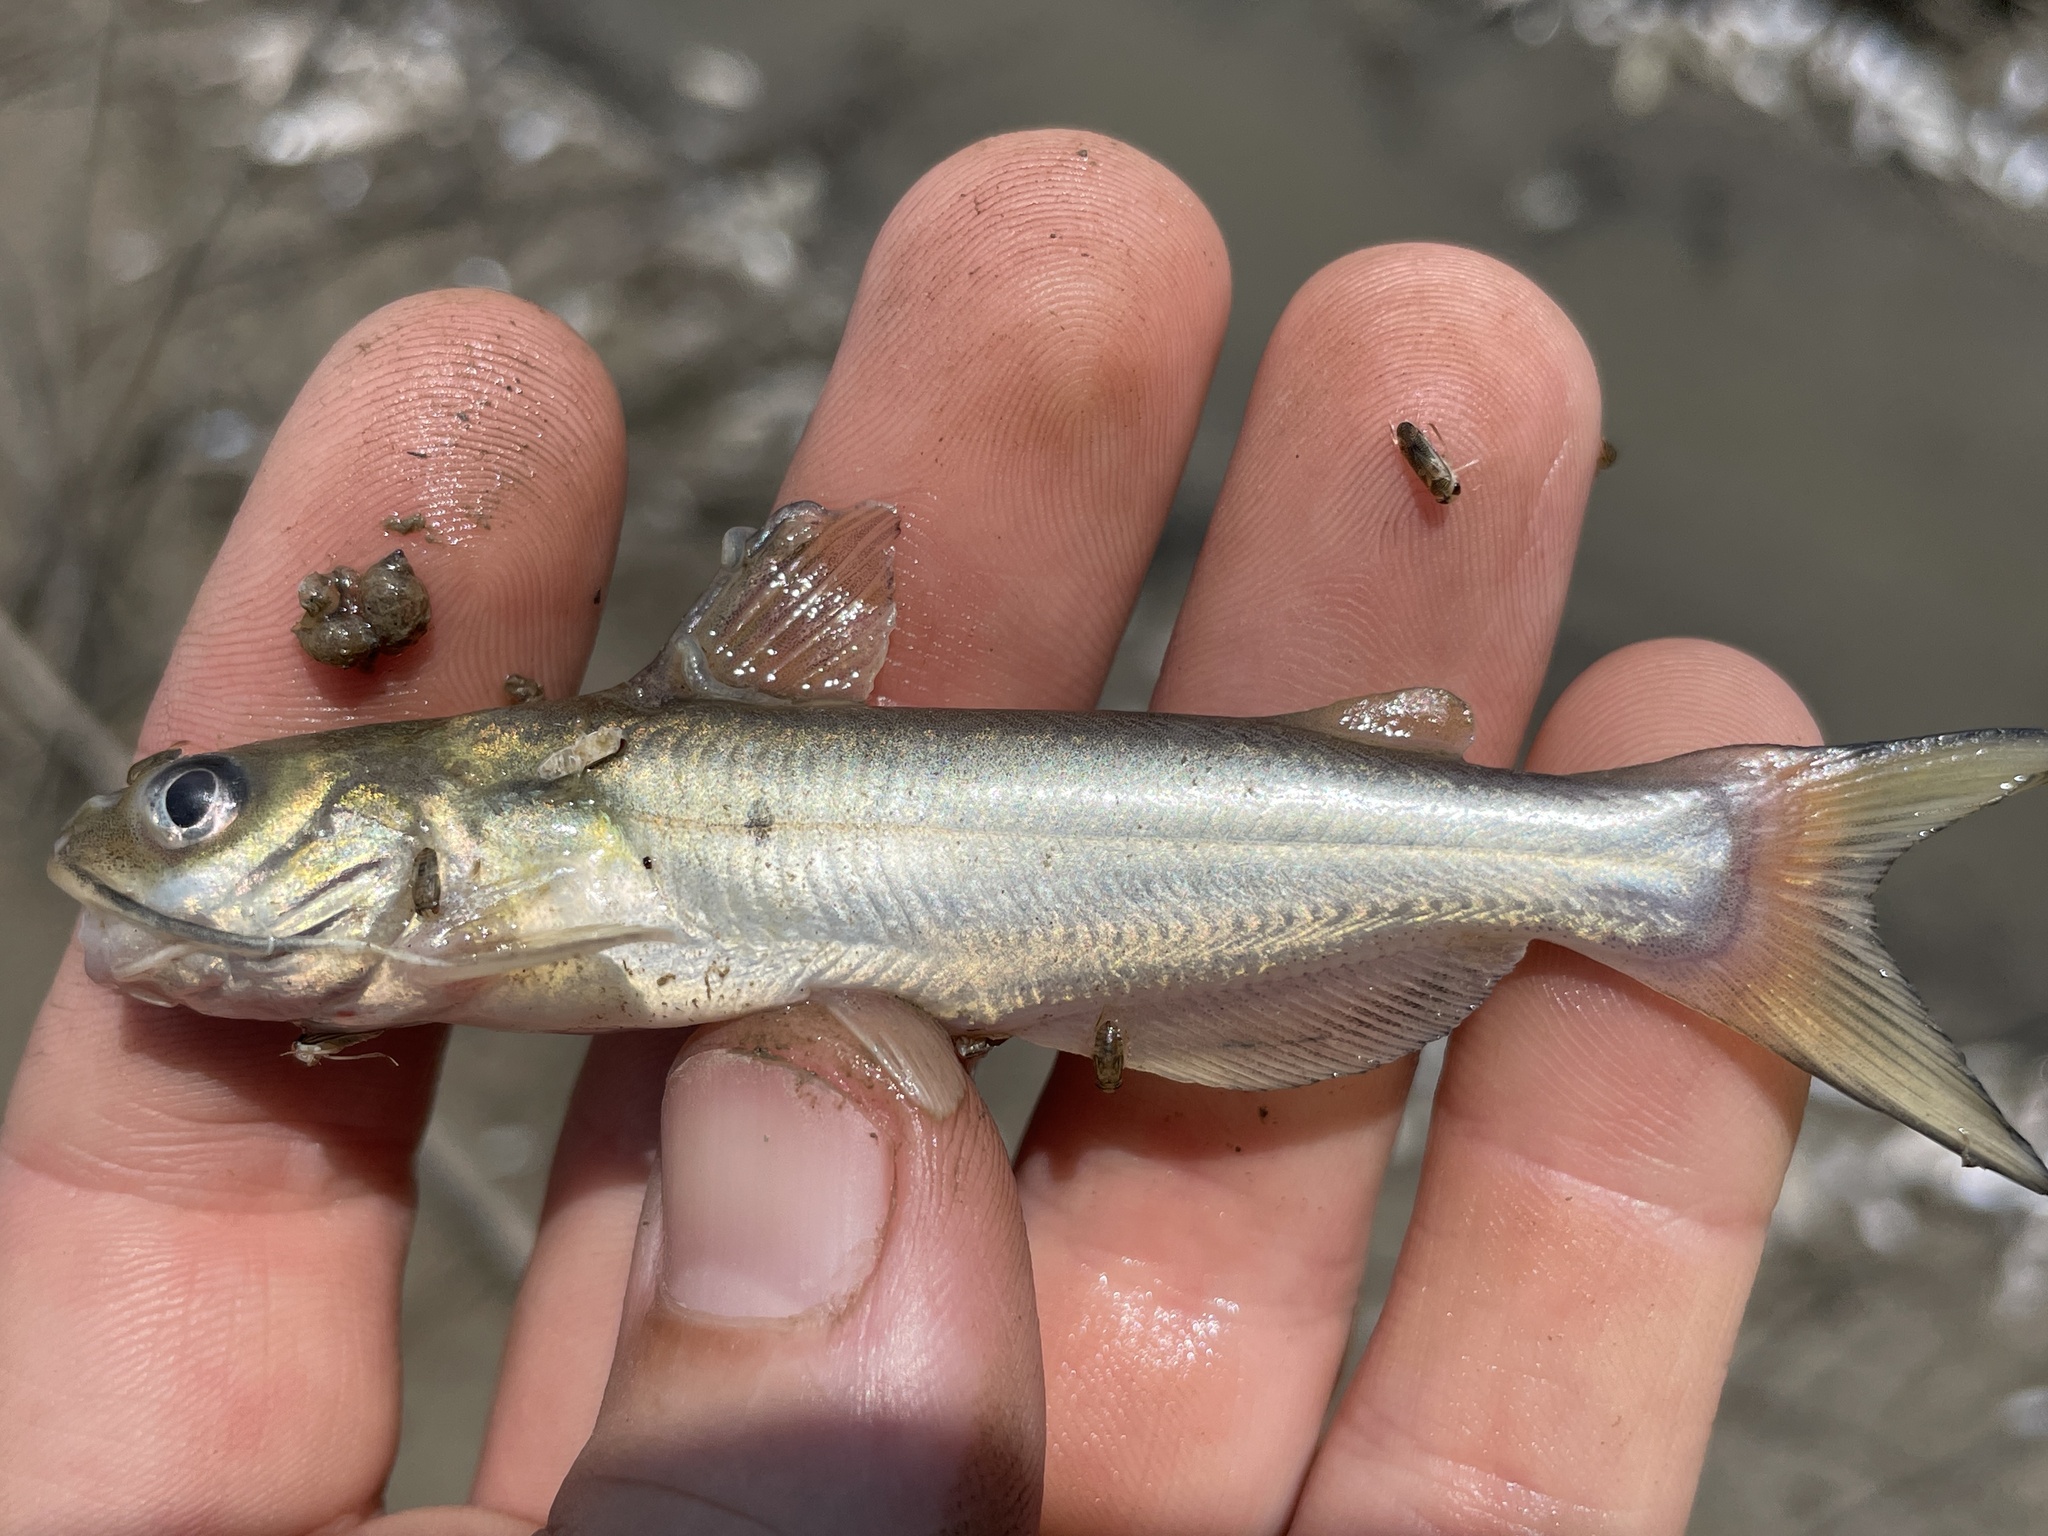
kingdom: Animalia
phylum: Chordata
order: Siluriformes
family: Ictaluridae
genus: Ictalurus
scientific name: Ictalurus punctatus
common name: Channel catfish
